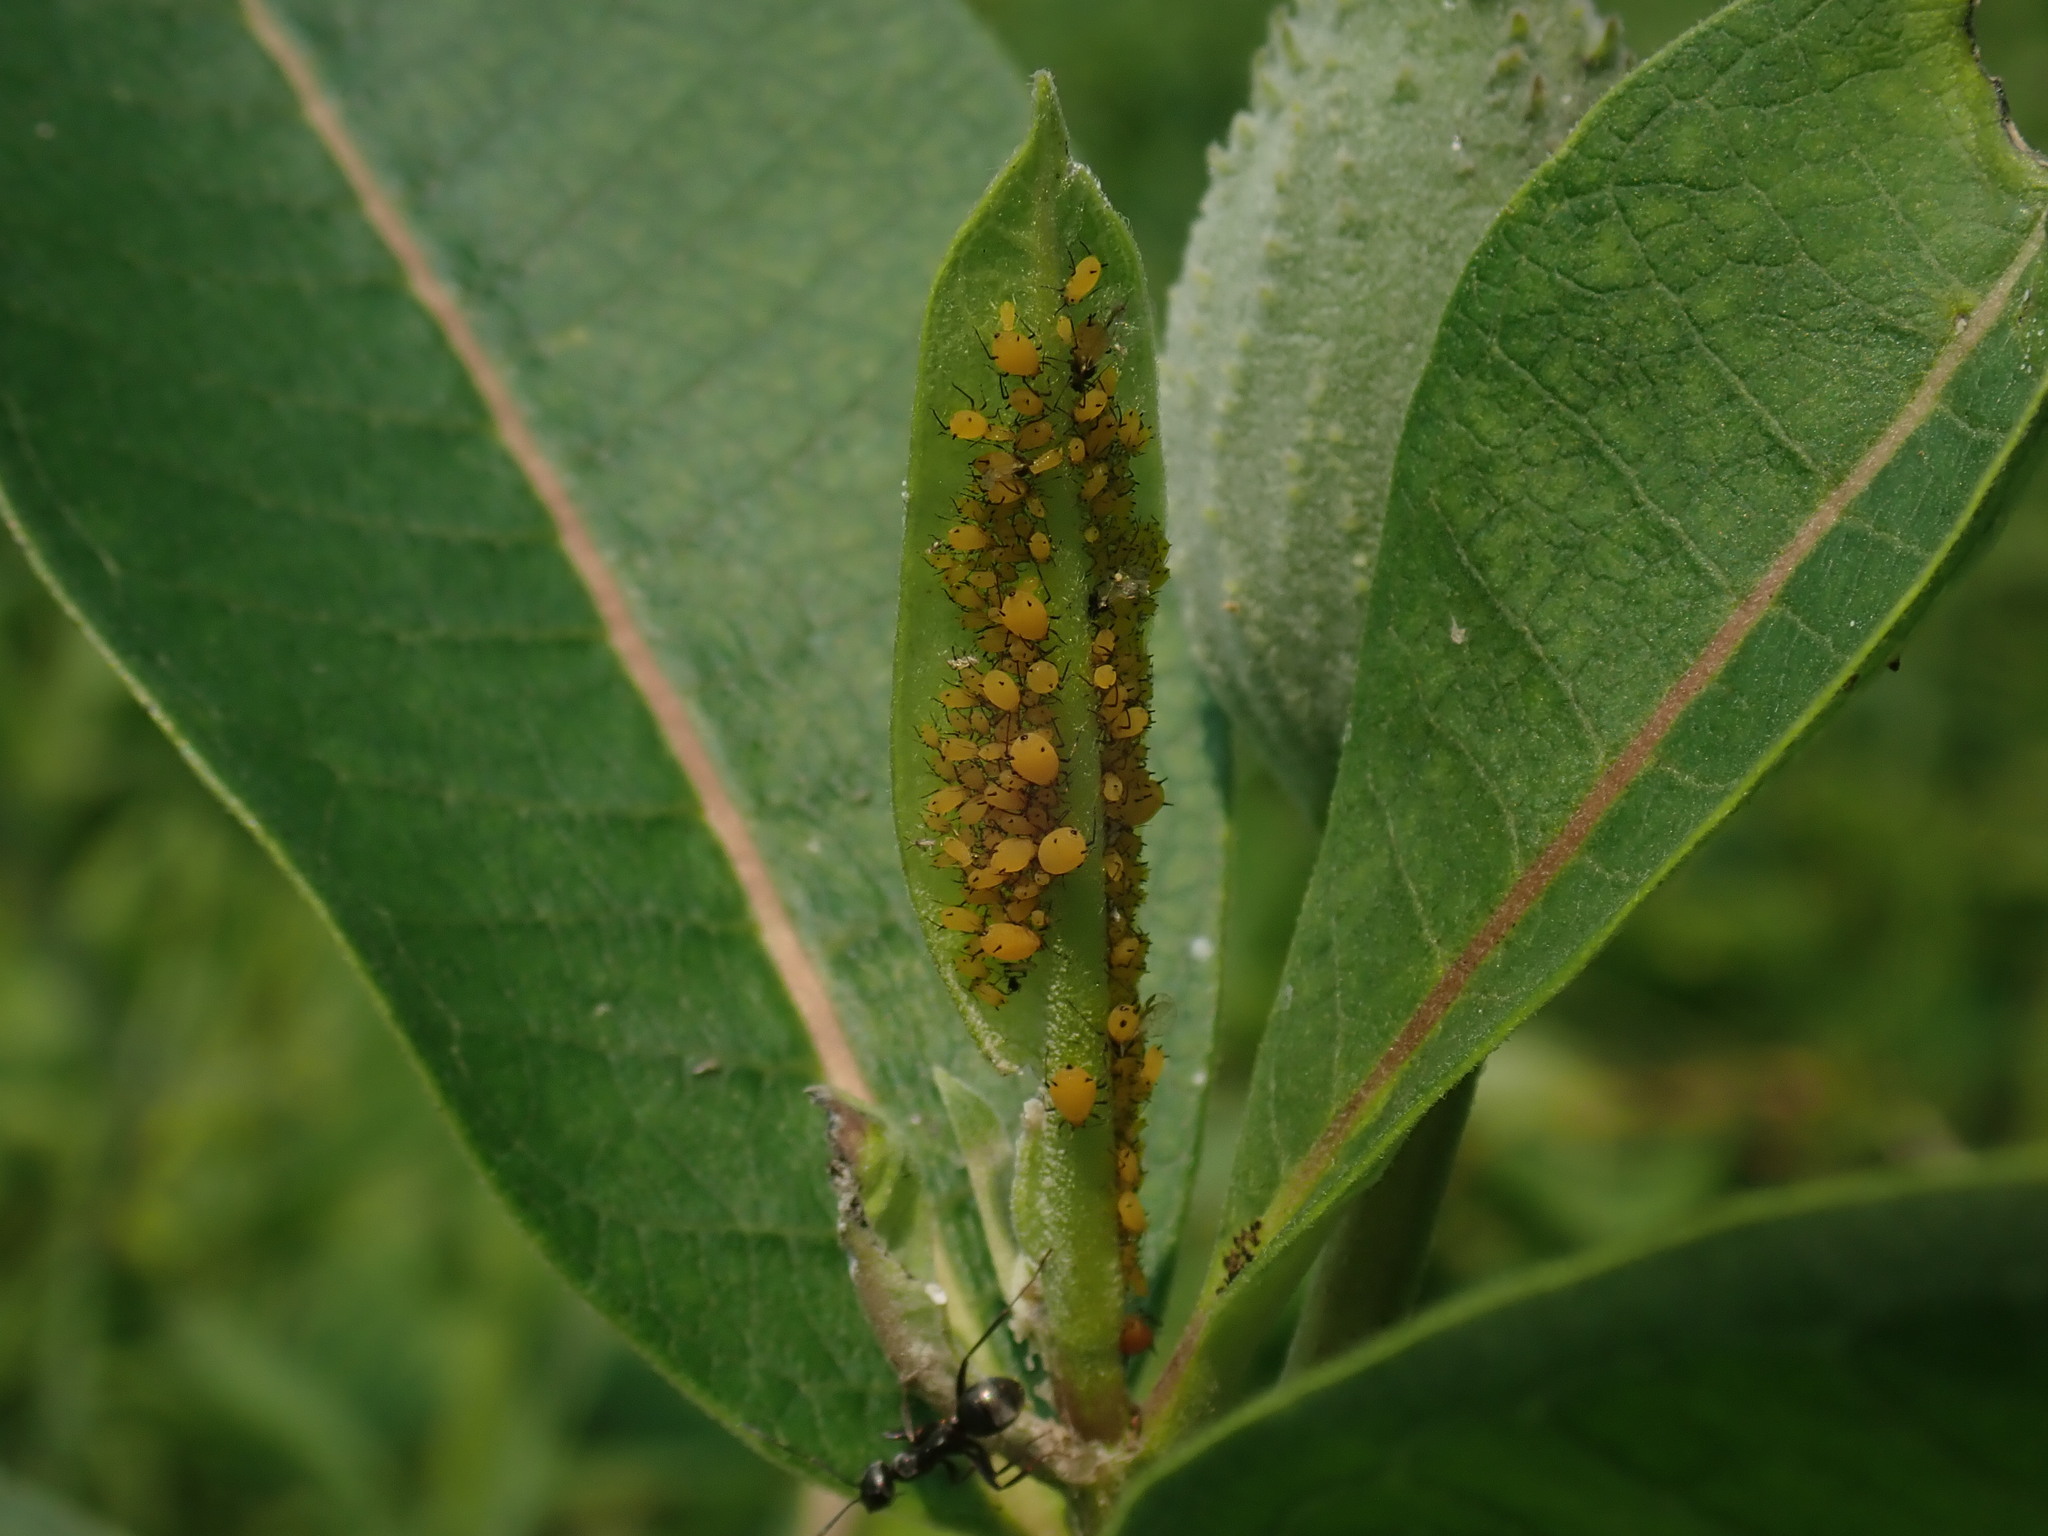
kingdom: Animalia
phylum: Arthropoda
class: Insecta
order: Hemiptera
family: Aphididae
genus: Aphis
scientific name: Aphis nerii
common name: Oleander aphid
